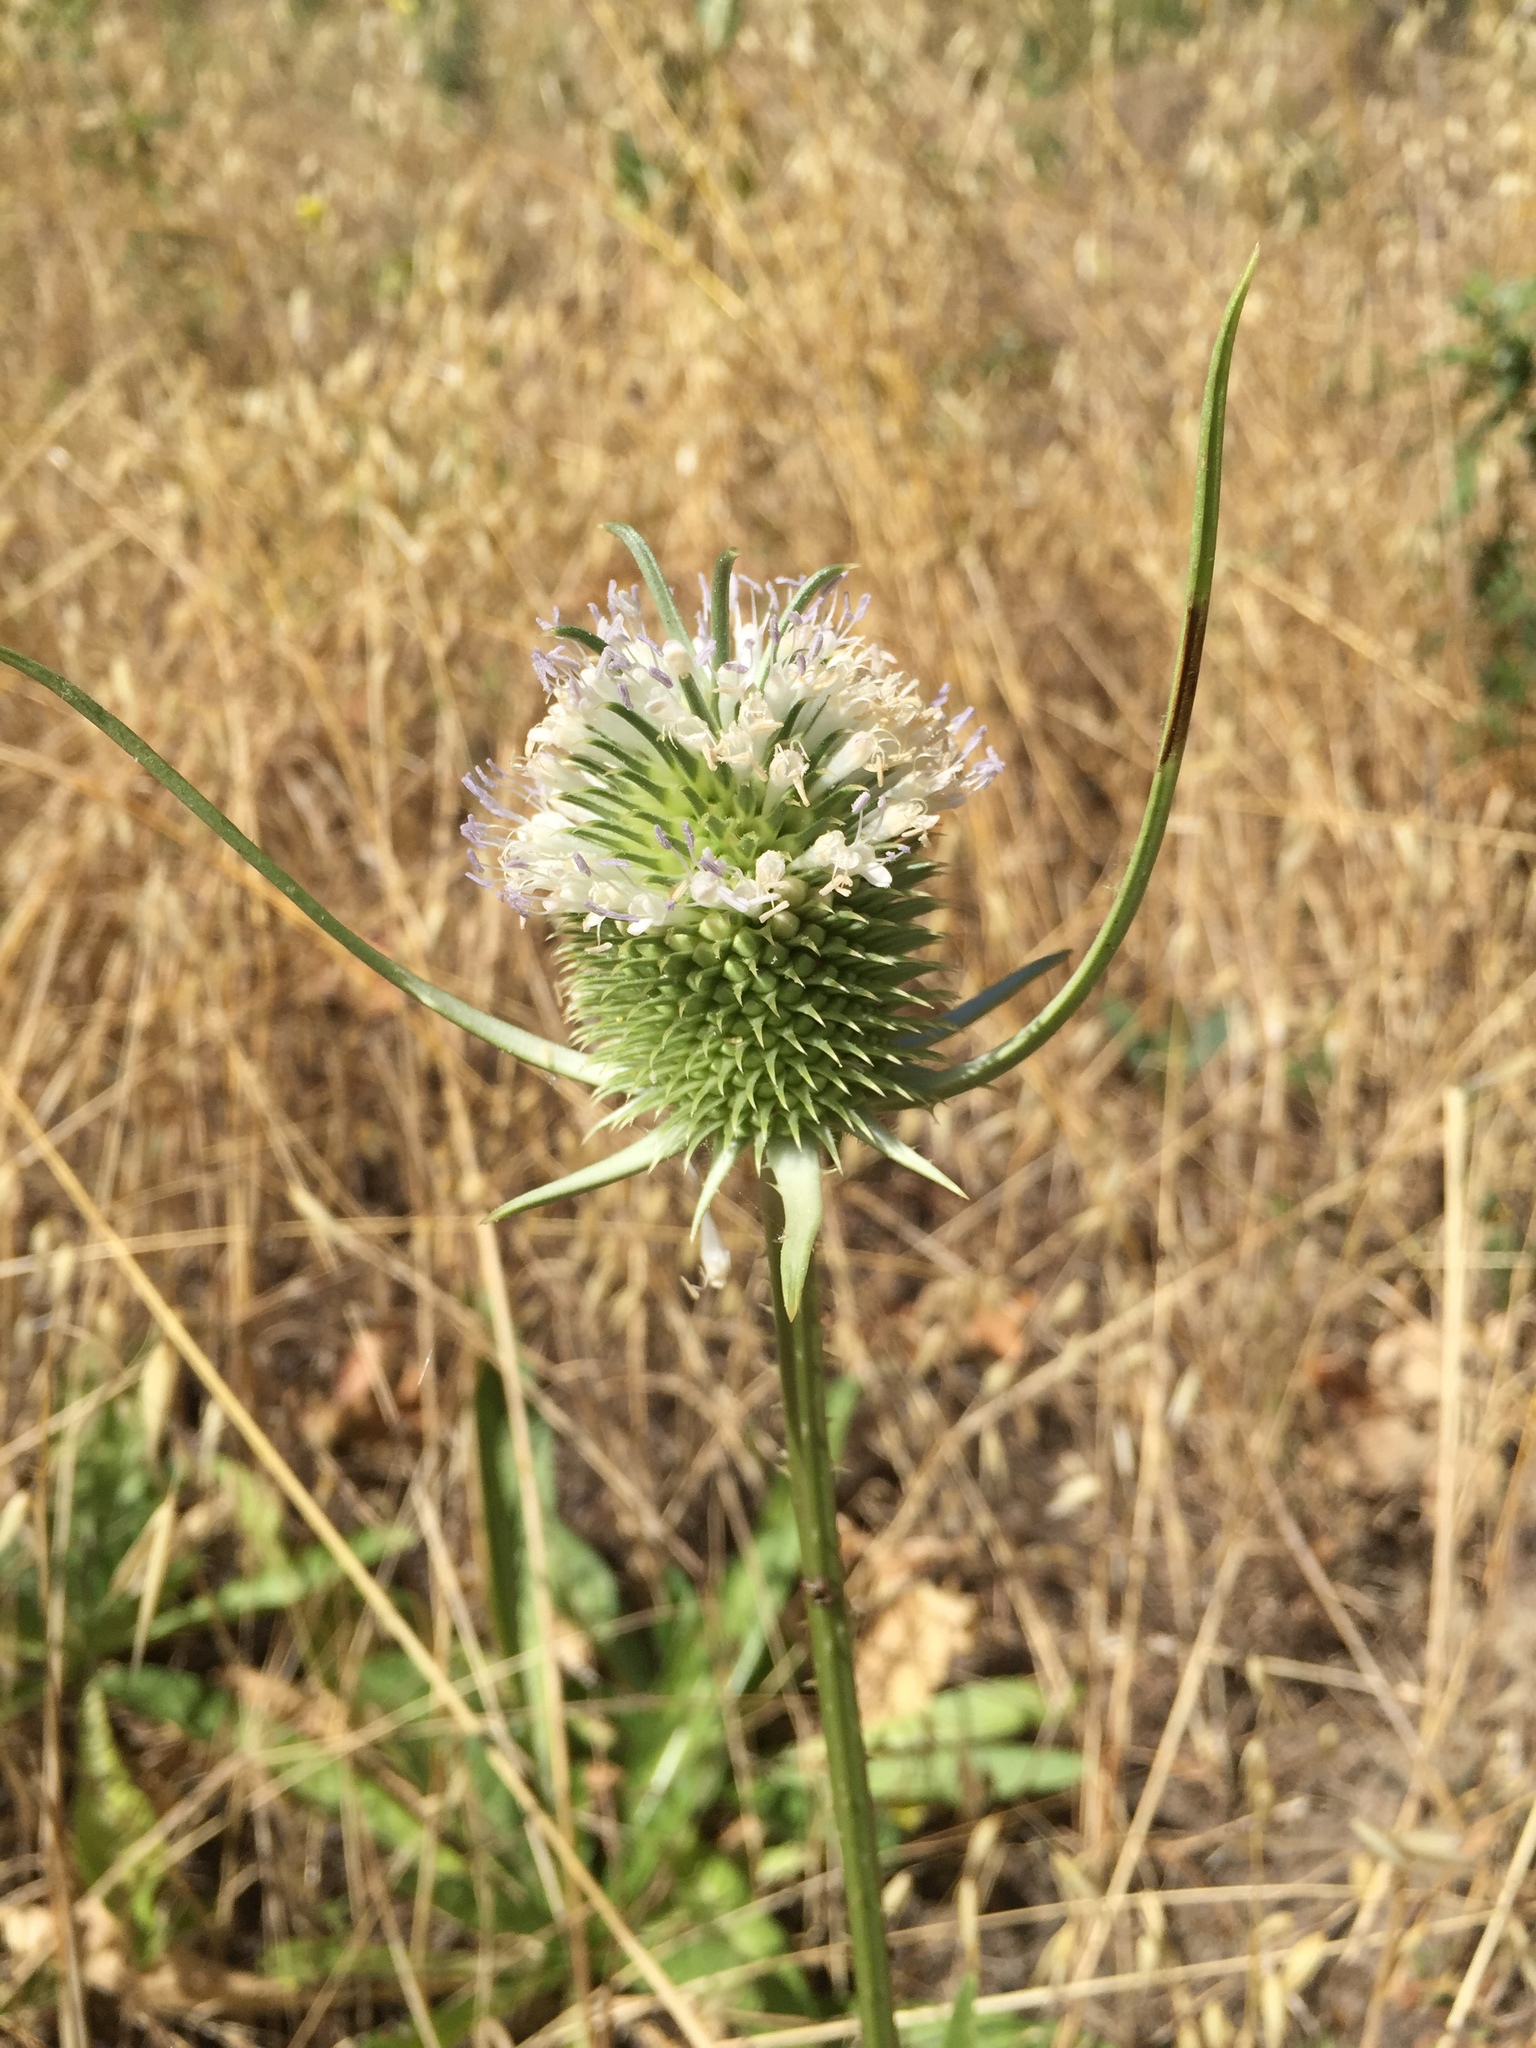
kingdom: Plantae
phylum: Tracheophyta
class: Magnoliopsida
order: Dipsacales
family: Caprifoliaceae
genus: Dipsacus
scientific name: Dipsacus sativus
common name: Fuller's teasel
